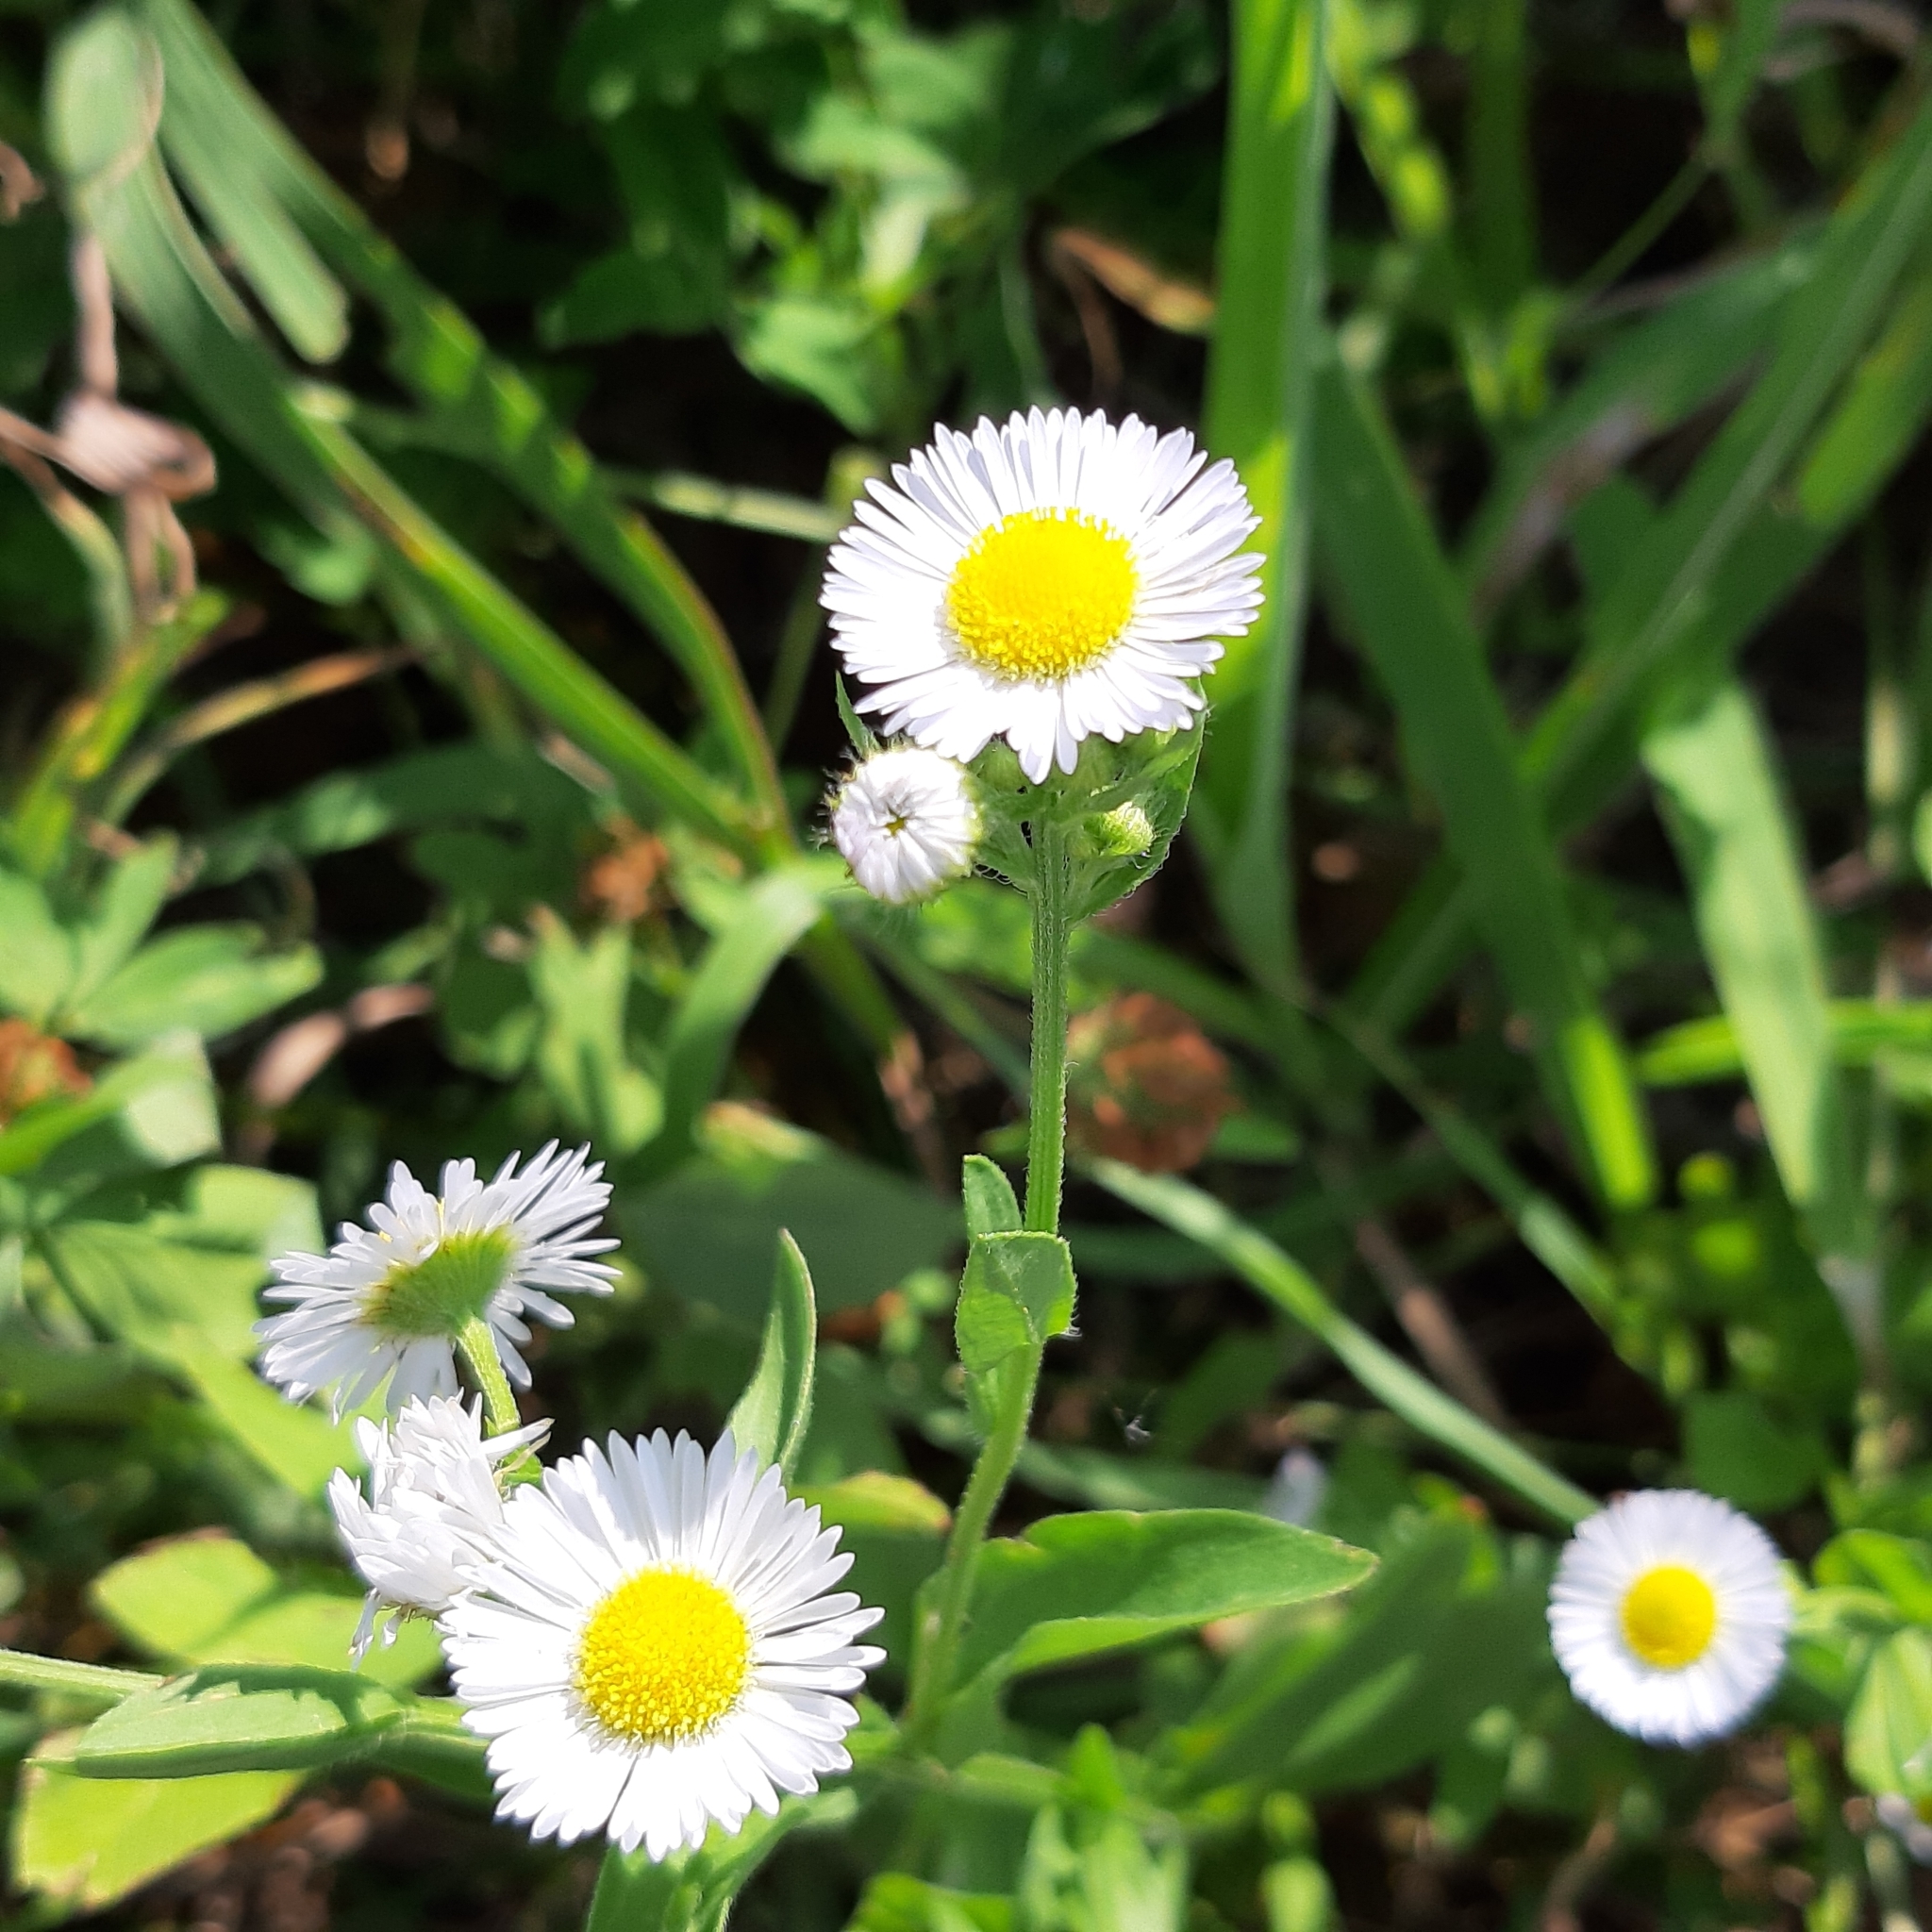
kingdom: Plantae
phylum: Tracheophyta
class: Magnoliopsida
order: Asterales
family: Asteraceae
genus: Erigeron
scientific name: Erigeron annuus
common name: Tall fleabane
